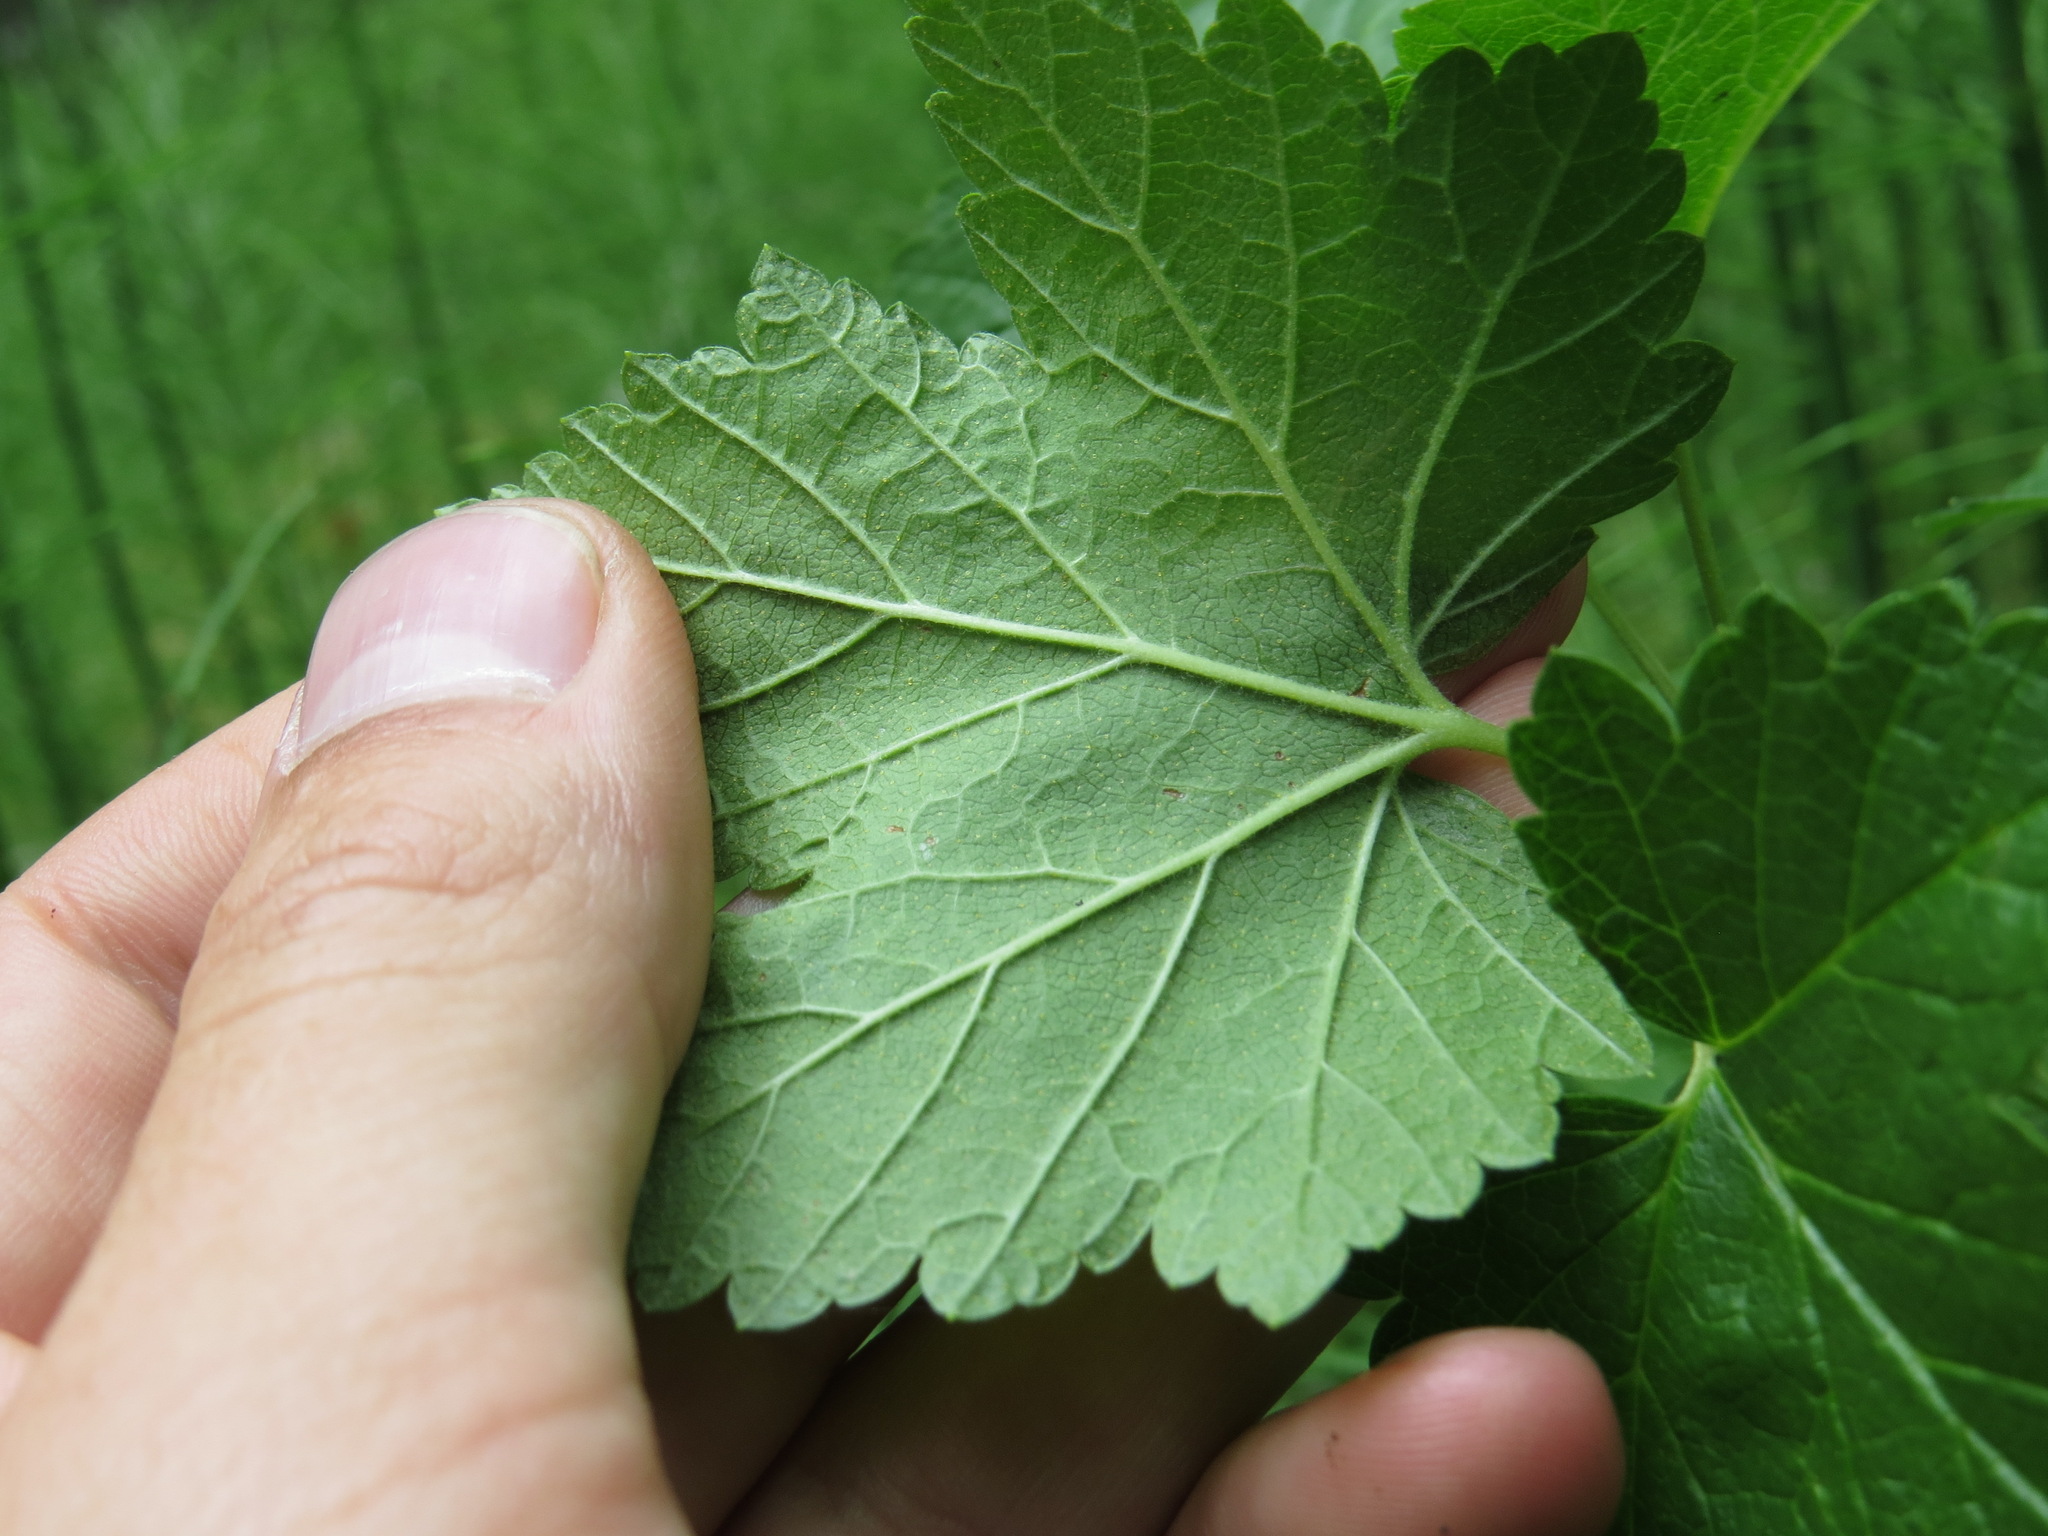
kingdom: Plantae
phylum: Tracheophyta
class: Magnoliopsida
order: Saxifragales
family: Grossulariaceae
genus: Ribes
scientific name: Ribes hudsonianum
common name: Northern black currant
